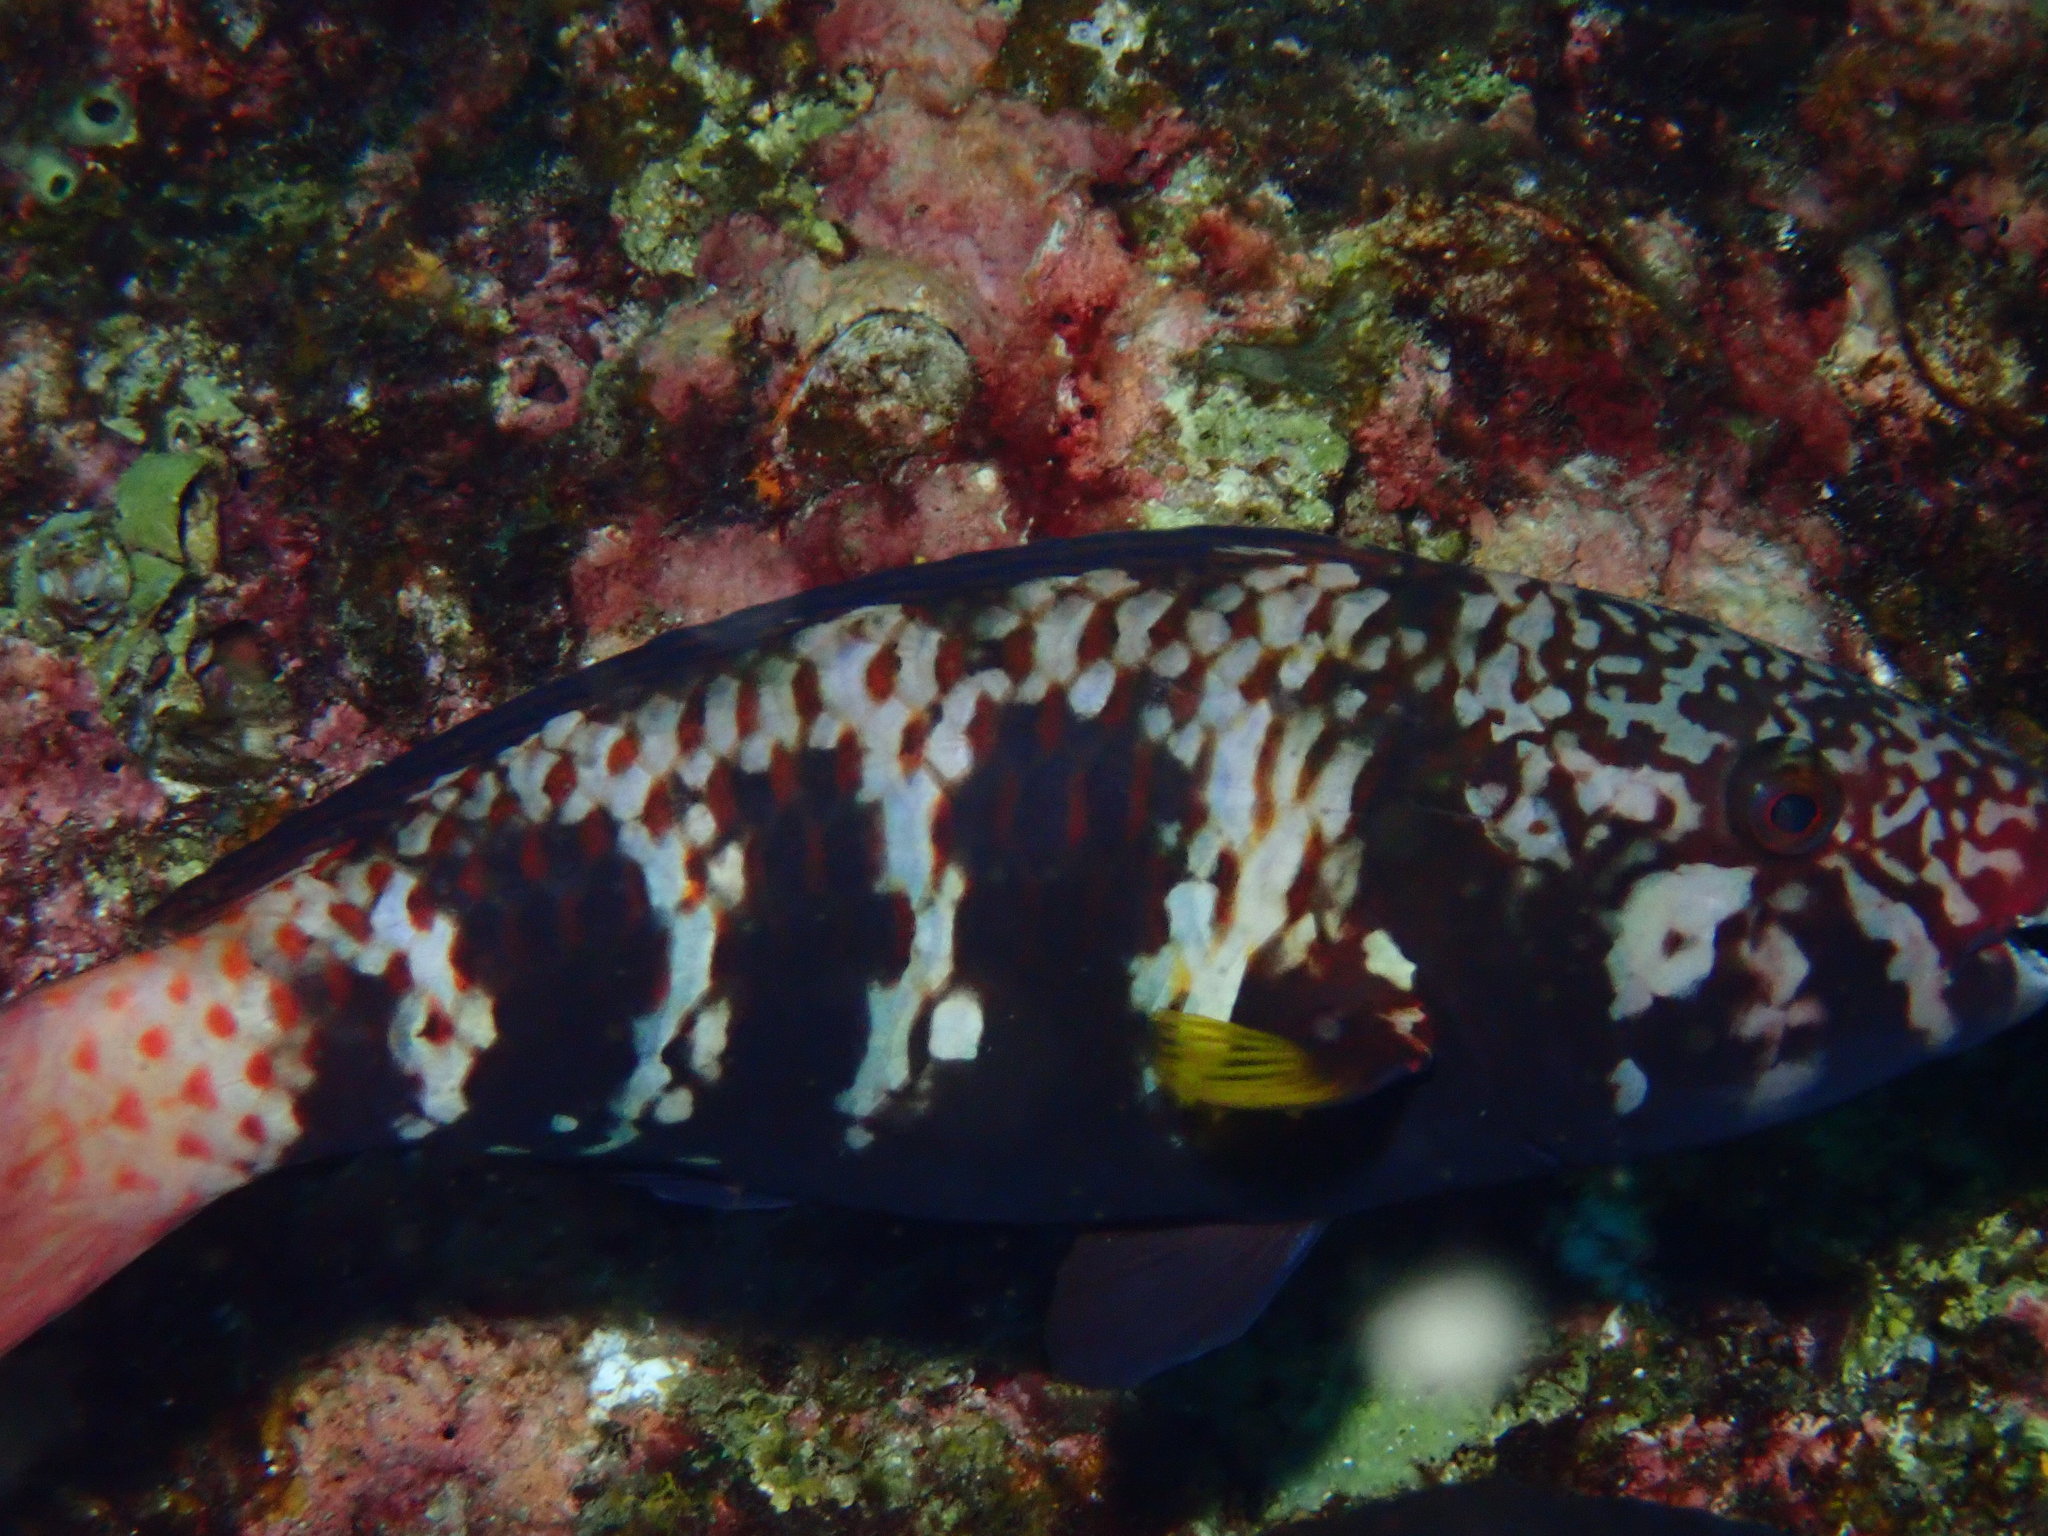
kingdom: Animalia
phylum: Chordata
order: Perciformes
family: Scaridae
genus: Chlorurus
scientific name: Chlorurus capistratoides
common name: Pink-margined parrotfish
